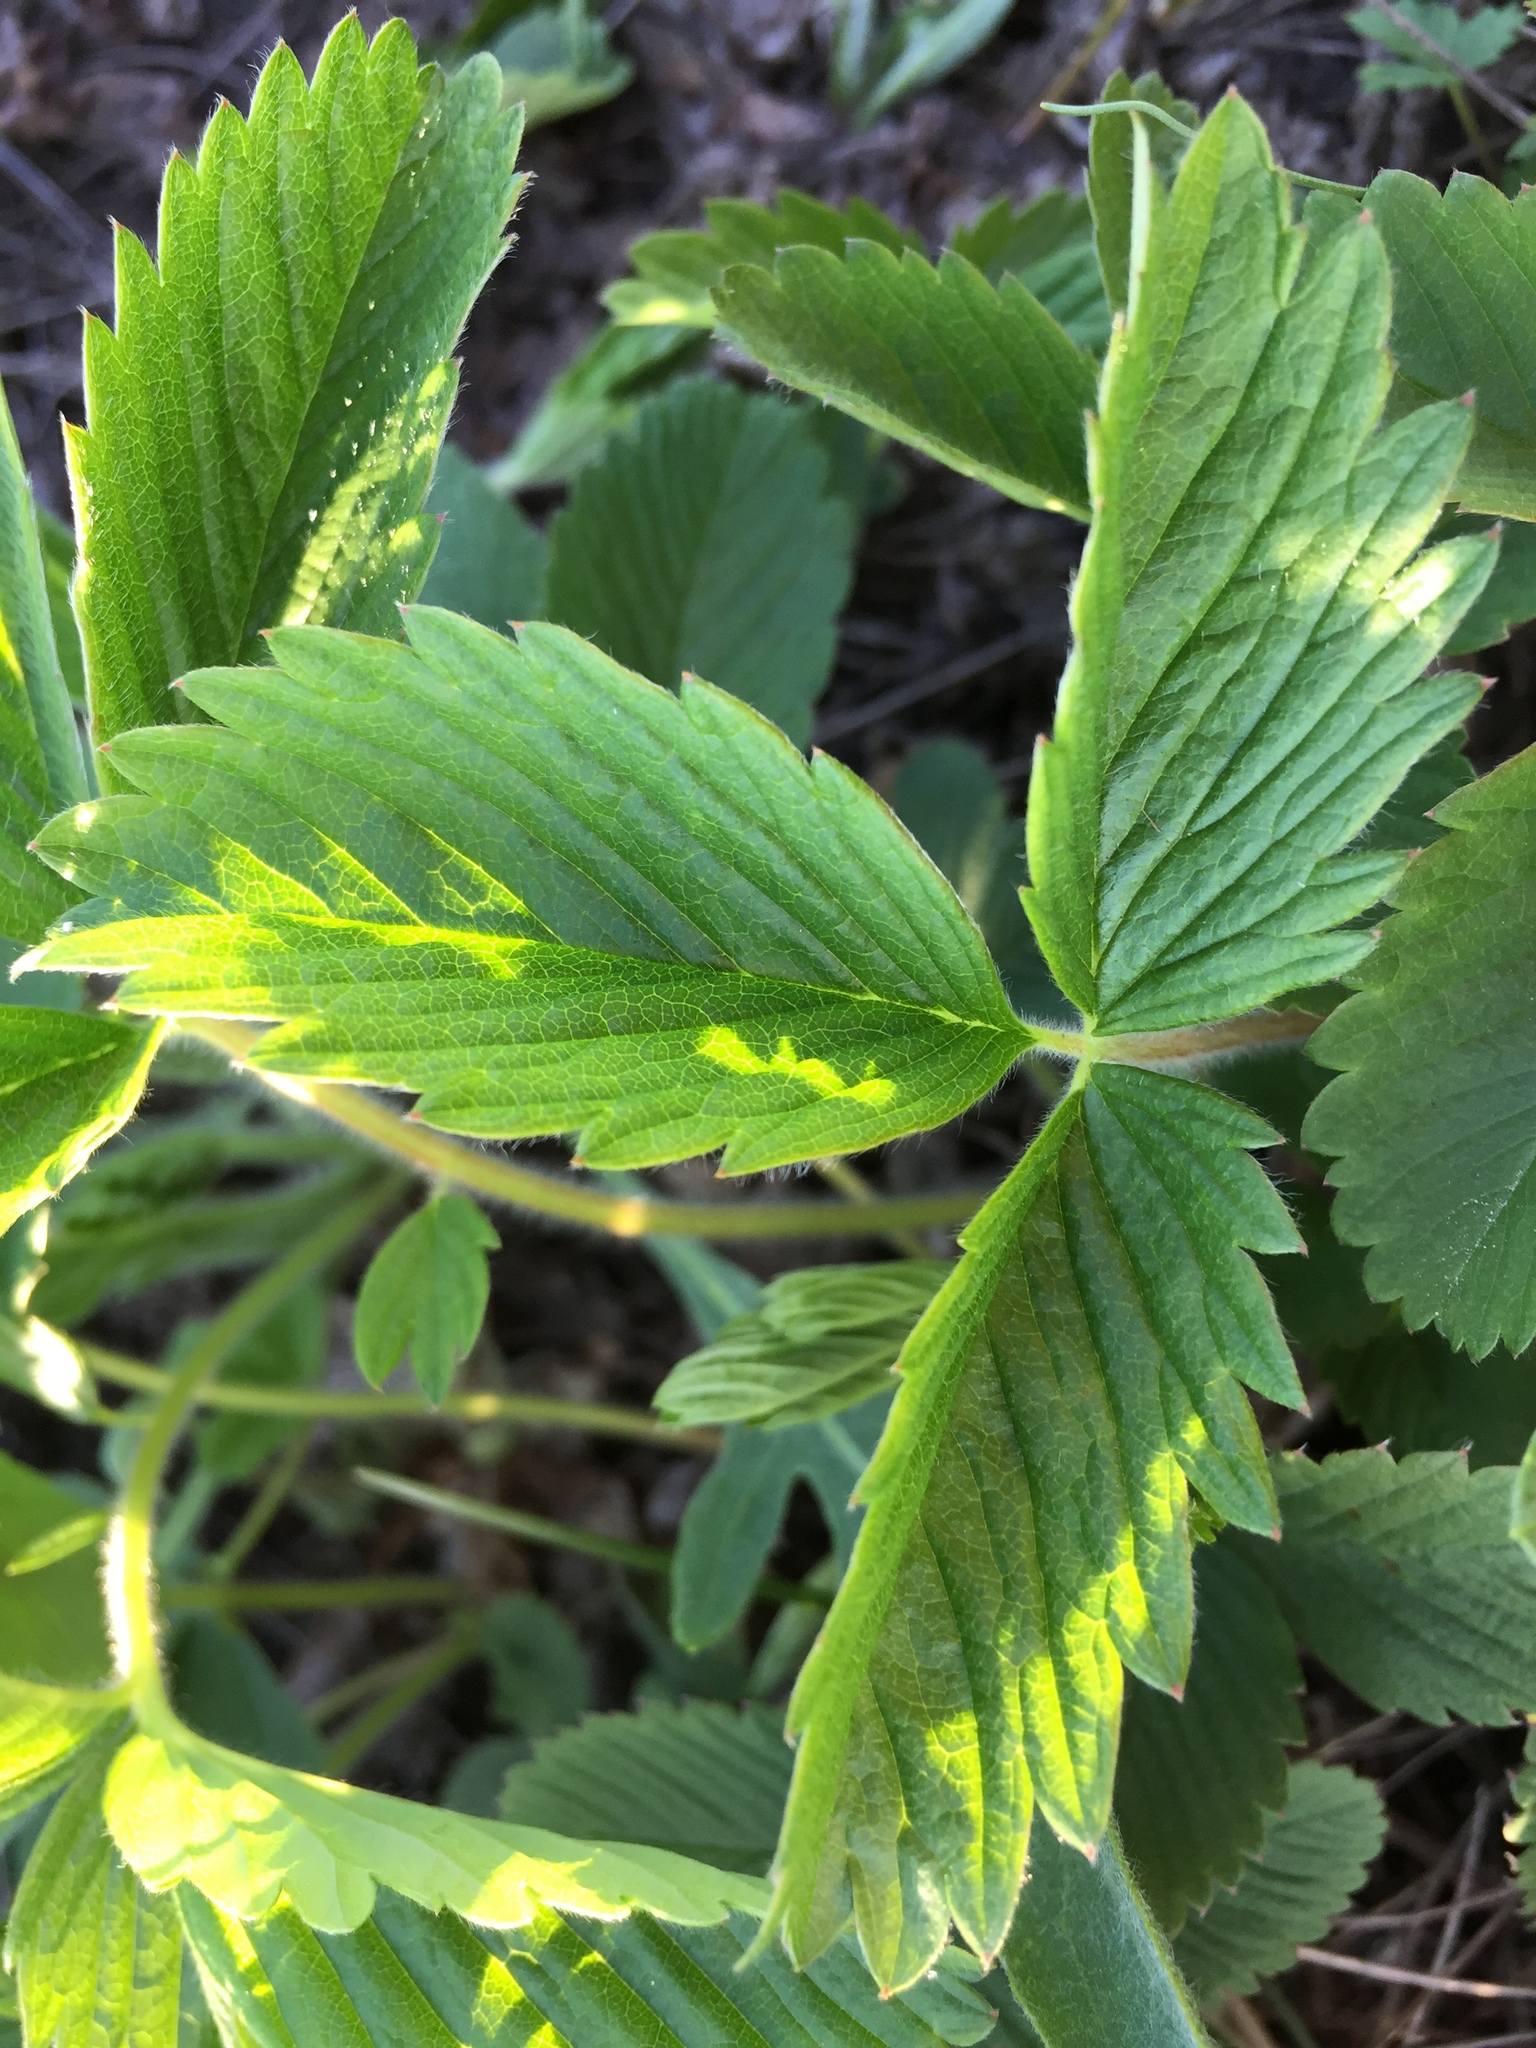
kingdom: Plantae
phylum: Tracheophyta
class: Magnoliopsida
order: Rosales
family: Rosaceae
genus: Fragaria
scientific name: Fragaria viridis
